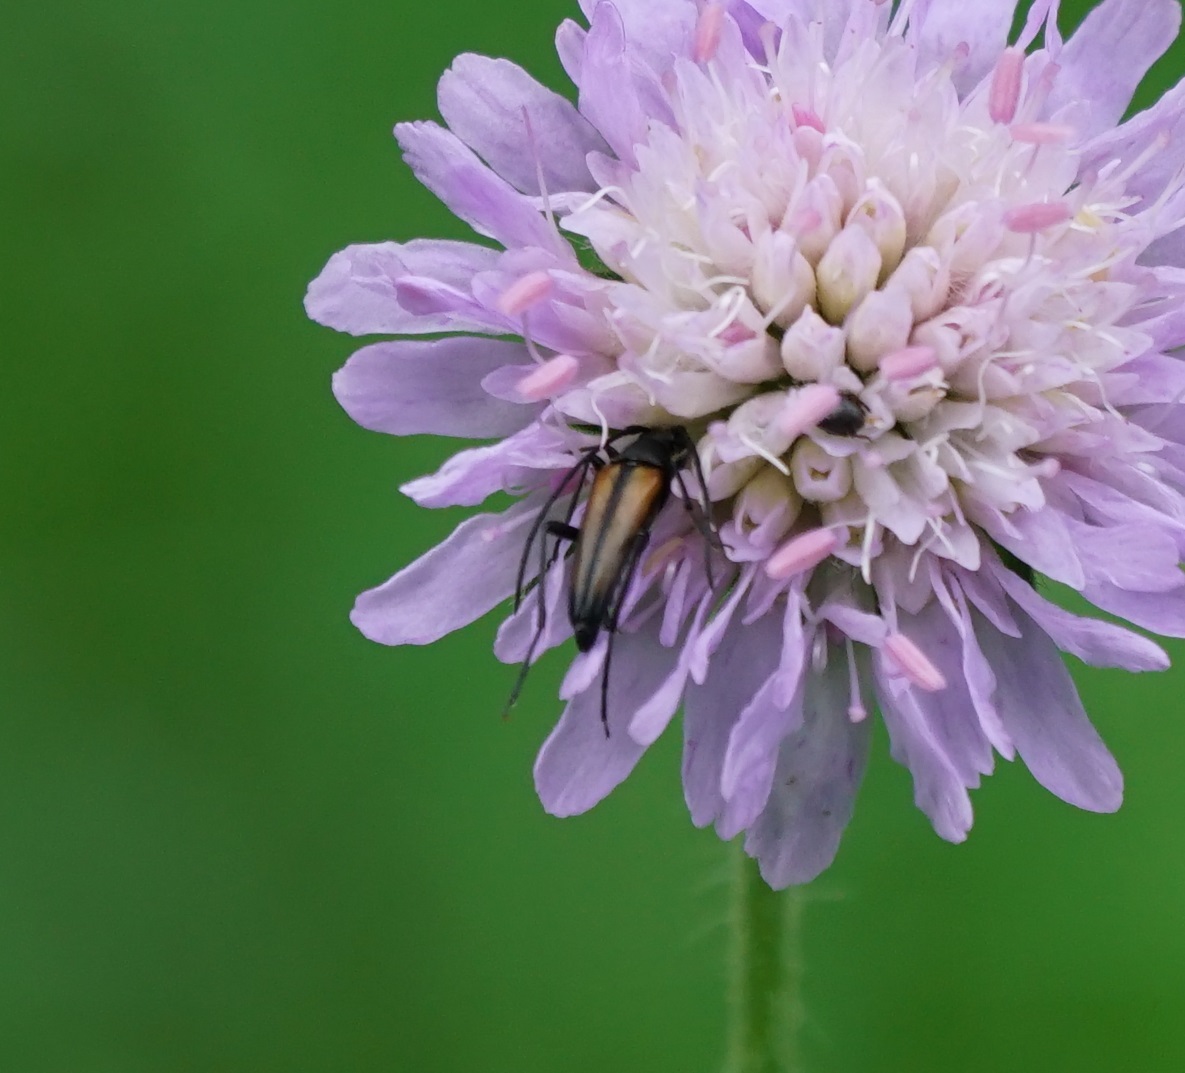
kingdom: Animalia
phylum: Arthropoda
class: Insecta
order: Coleoptera
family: Cerambycidae
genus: Stenurella
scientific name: Stenurella melanura
